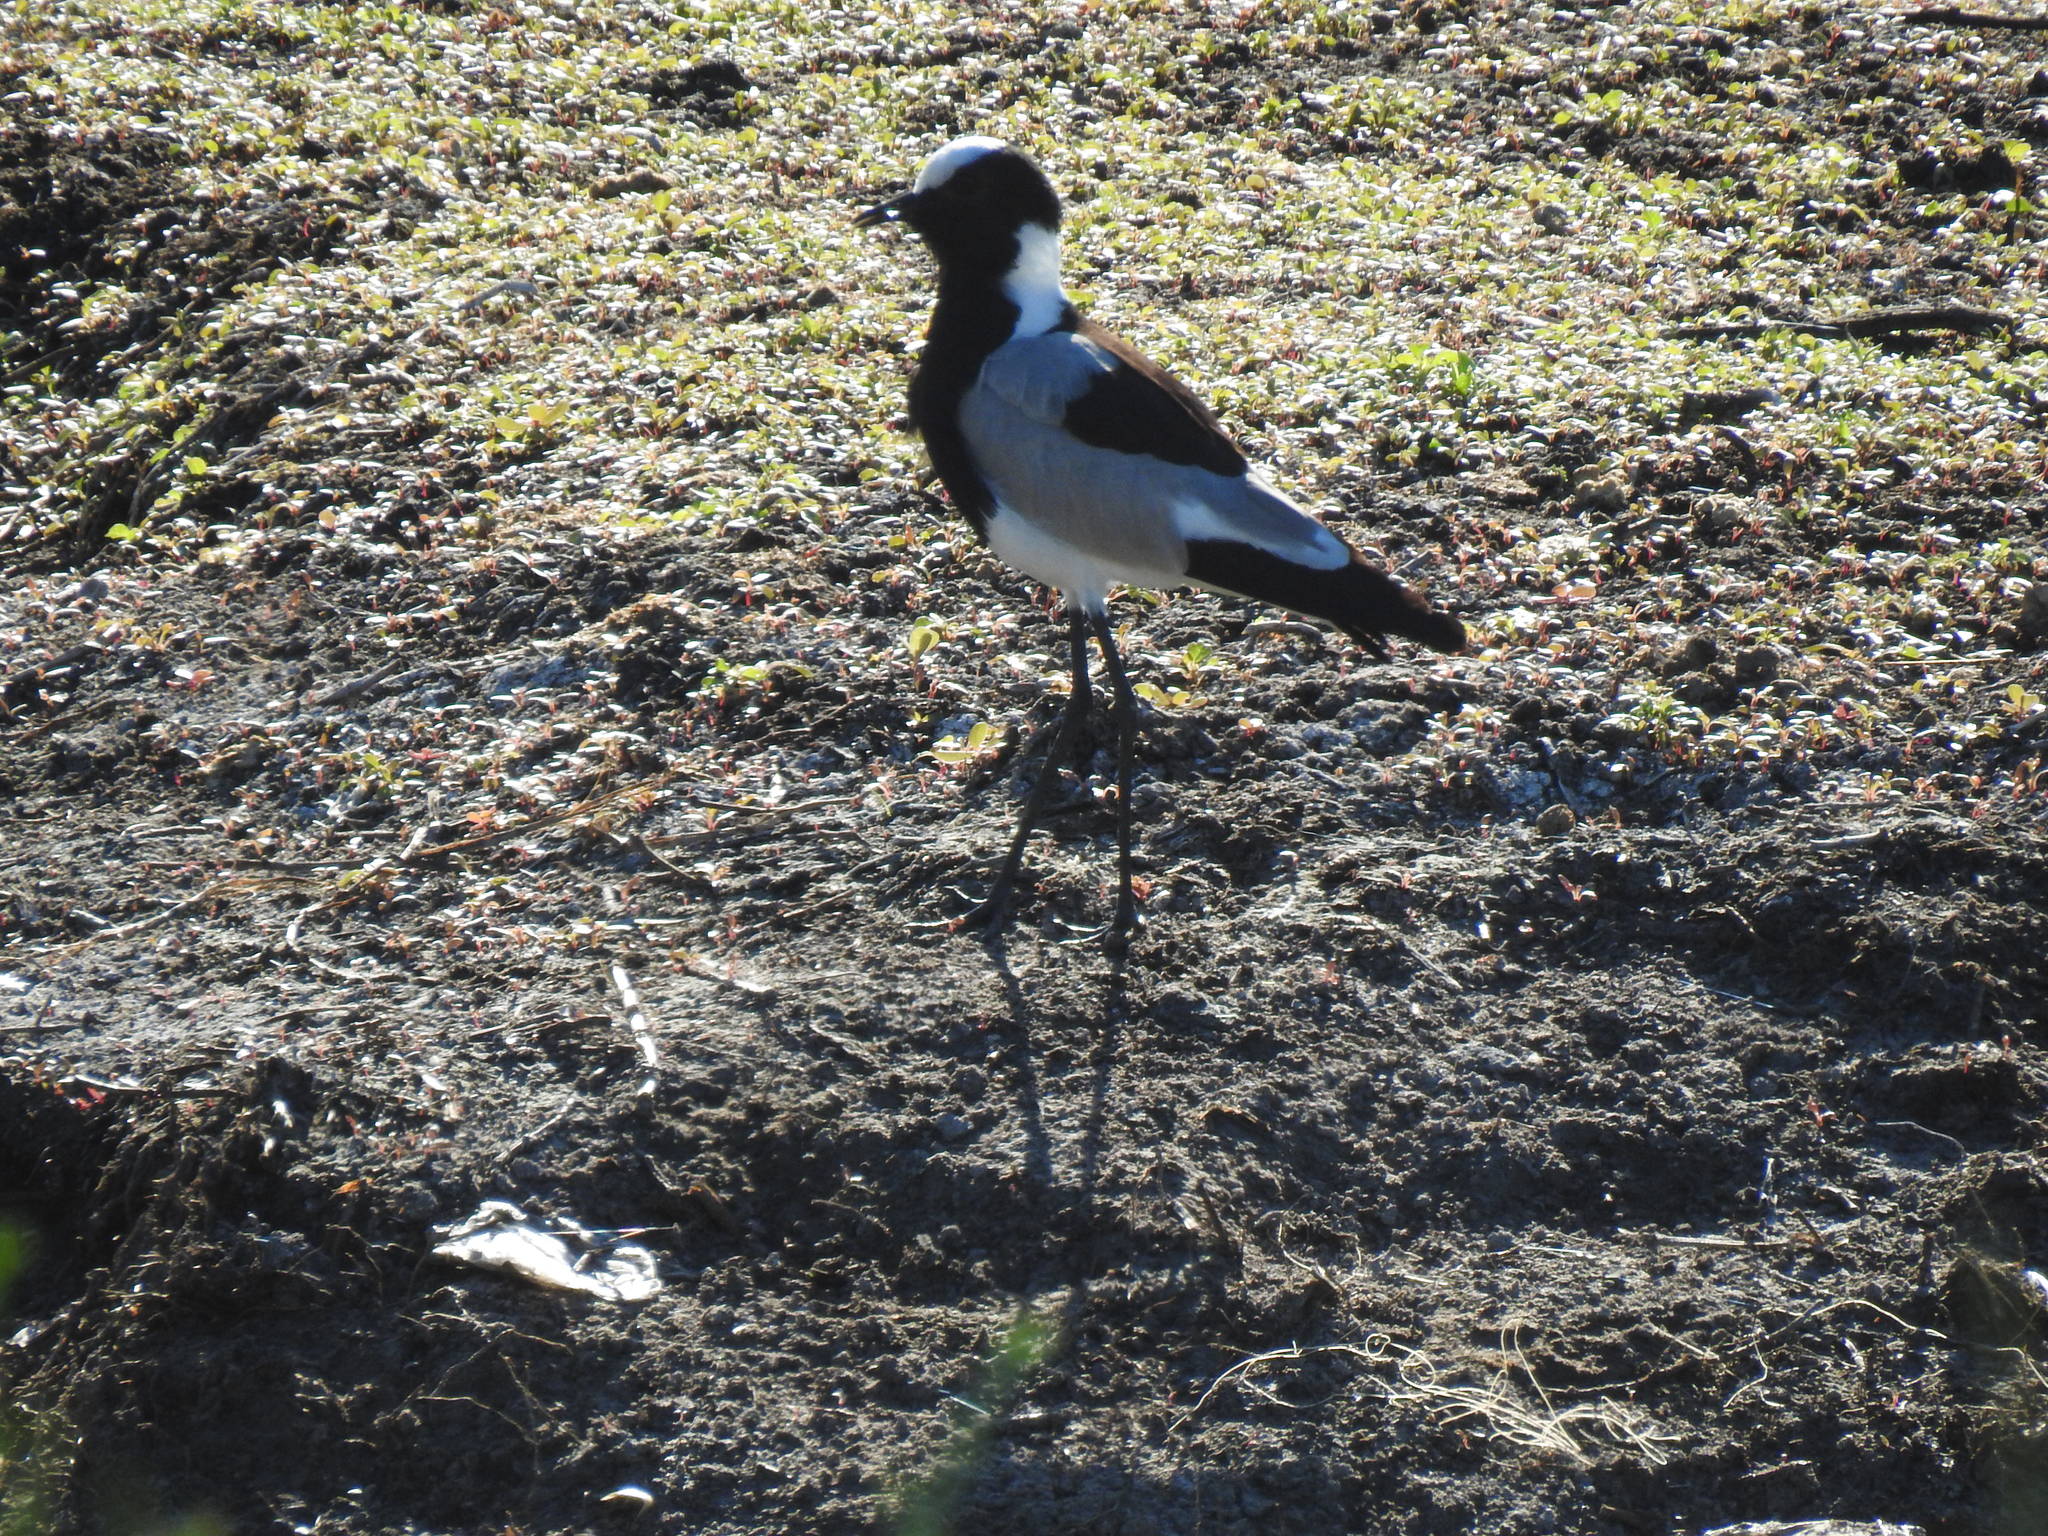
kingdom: Animalia
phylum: Chordata
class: Aves
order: Charadriiformes
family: Charadriidae
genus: Vanellus
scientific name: Vanellus armatus
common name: Blacksmith lapwing
